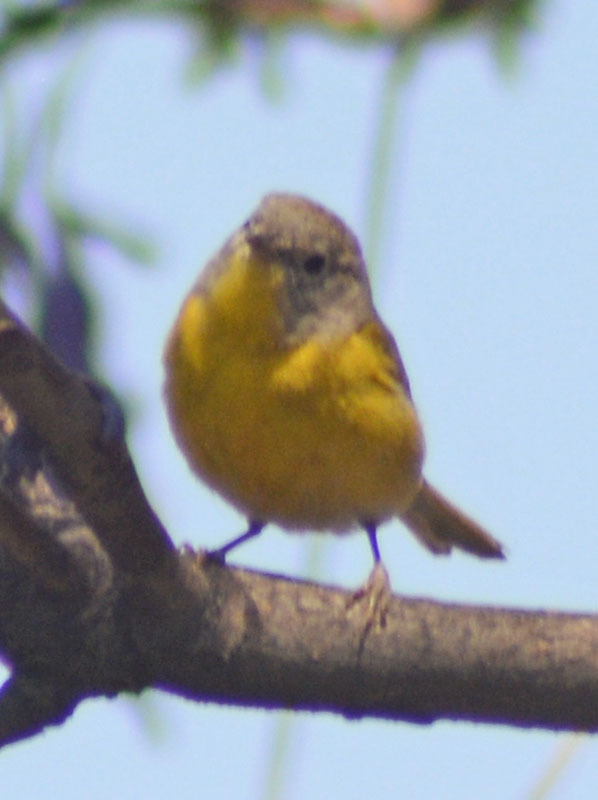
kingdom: Animalia
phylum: Chordata
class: Aves
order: Passeriformes
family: Parulidae
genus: Leiothlypis
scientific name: Leiothlypis ruficapilla
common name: Nashville warbler
